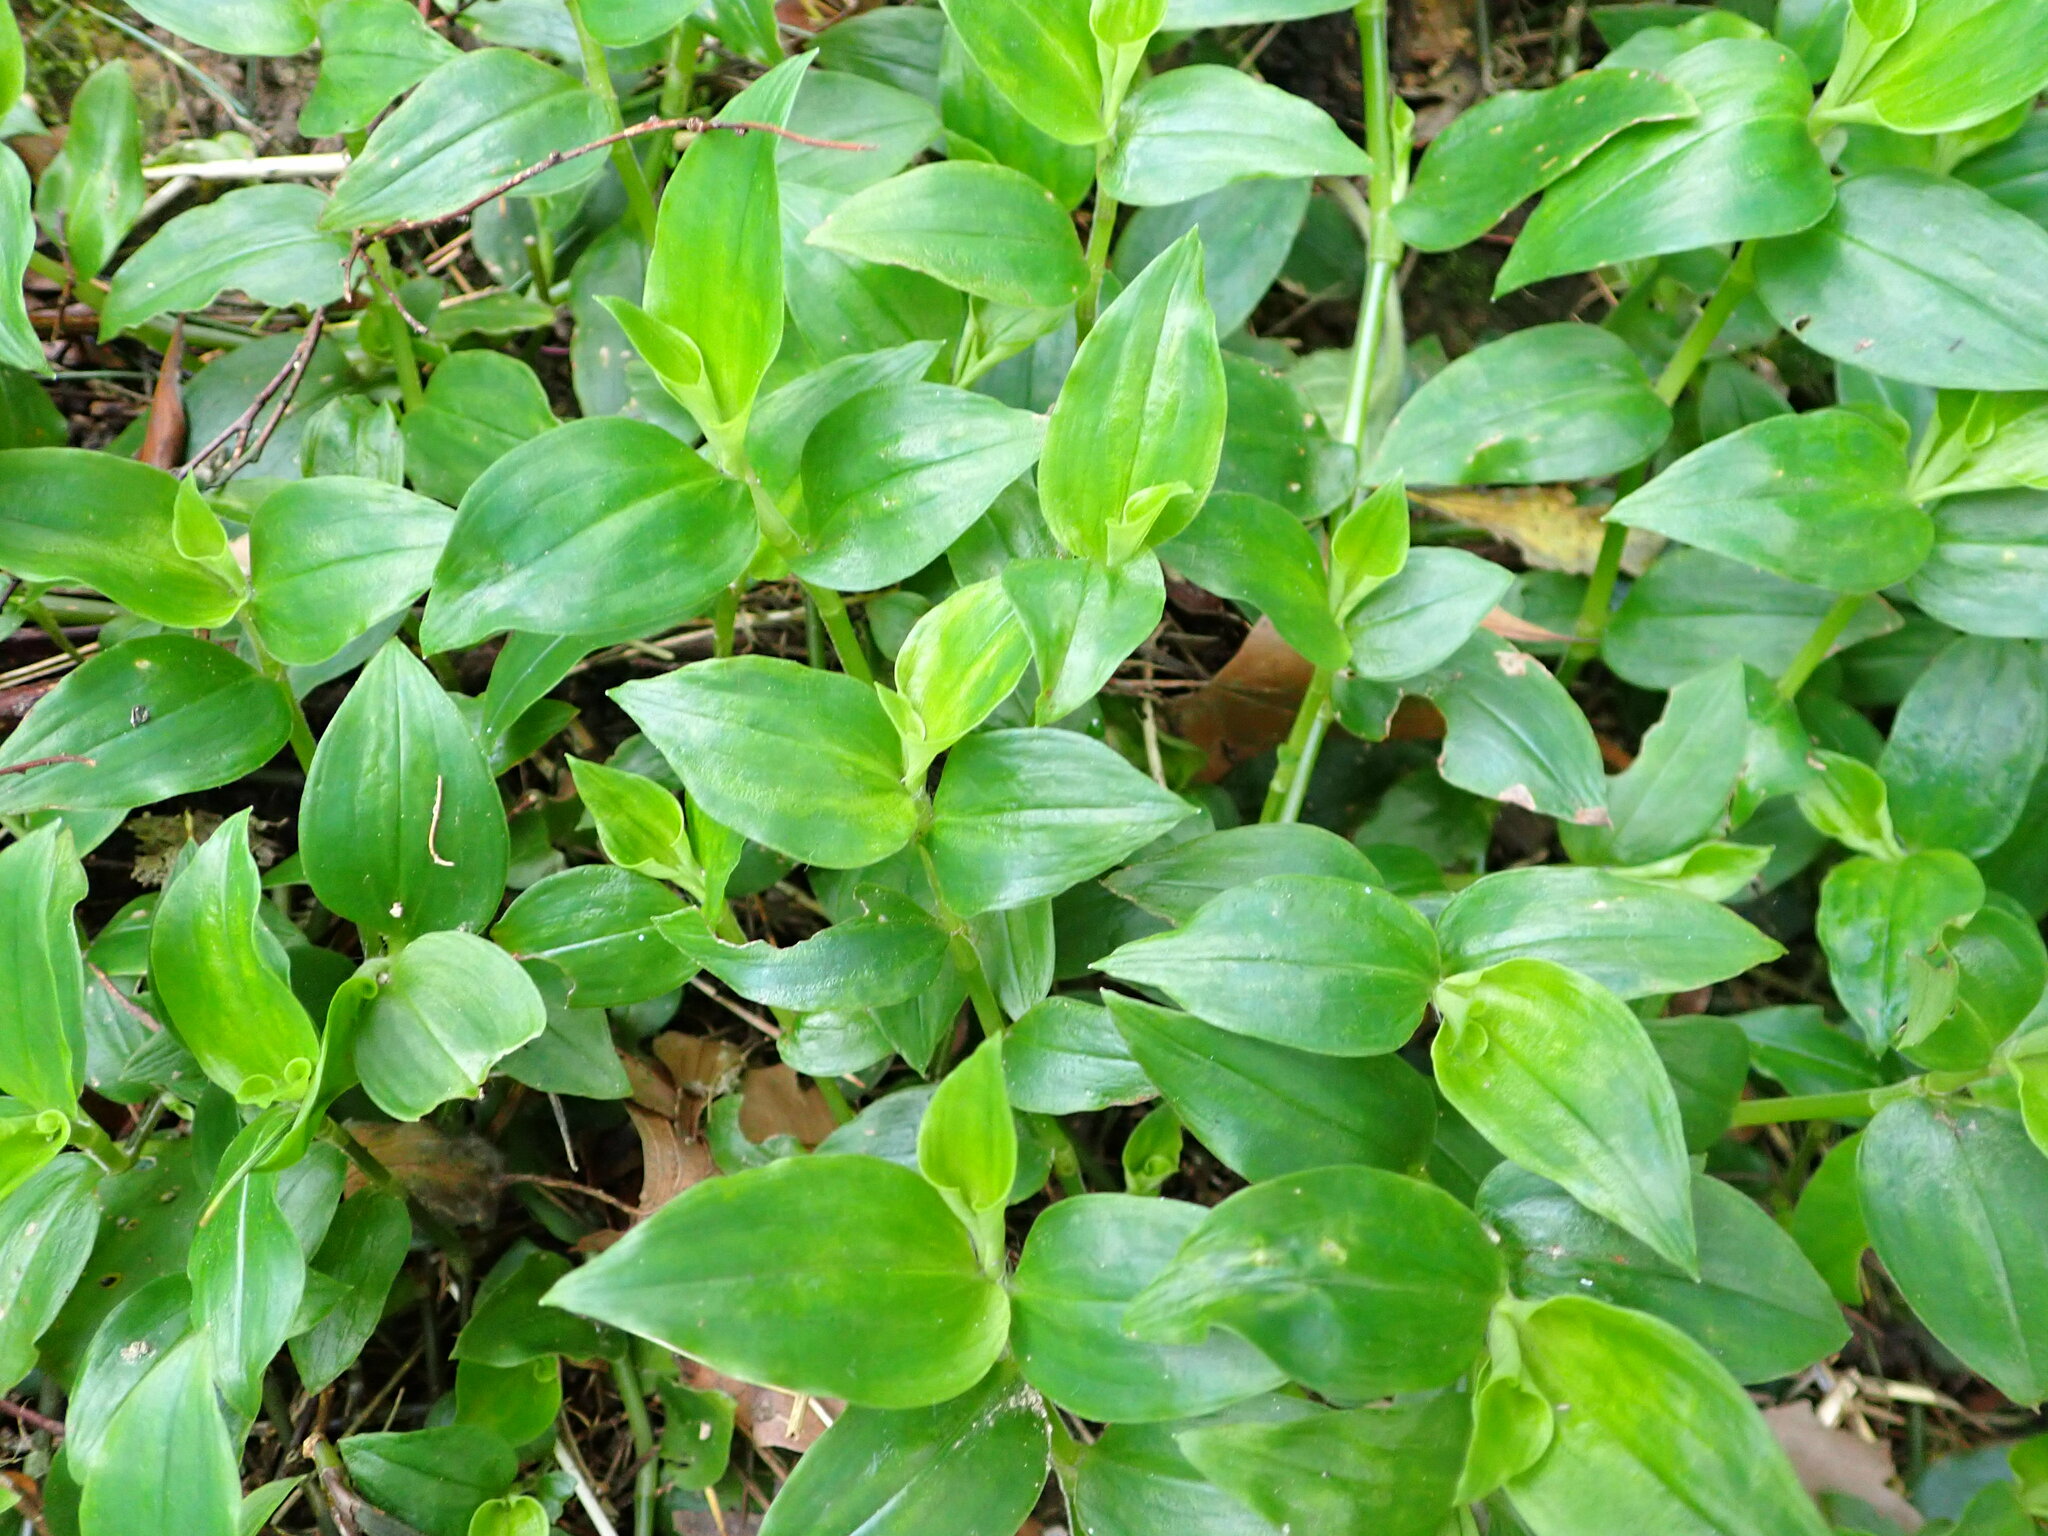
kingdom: Plantae
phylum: Tracheophyta
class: Liliopsida
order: Commelinales
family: Commelinaceae
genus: Tradescantia
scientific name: Tradescantia fluminensis
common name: Wandering-jew
